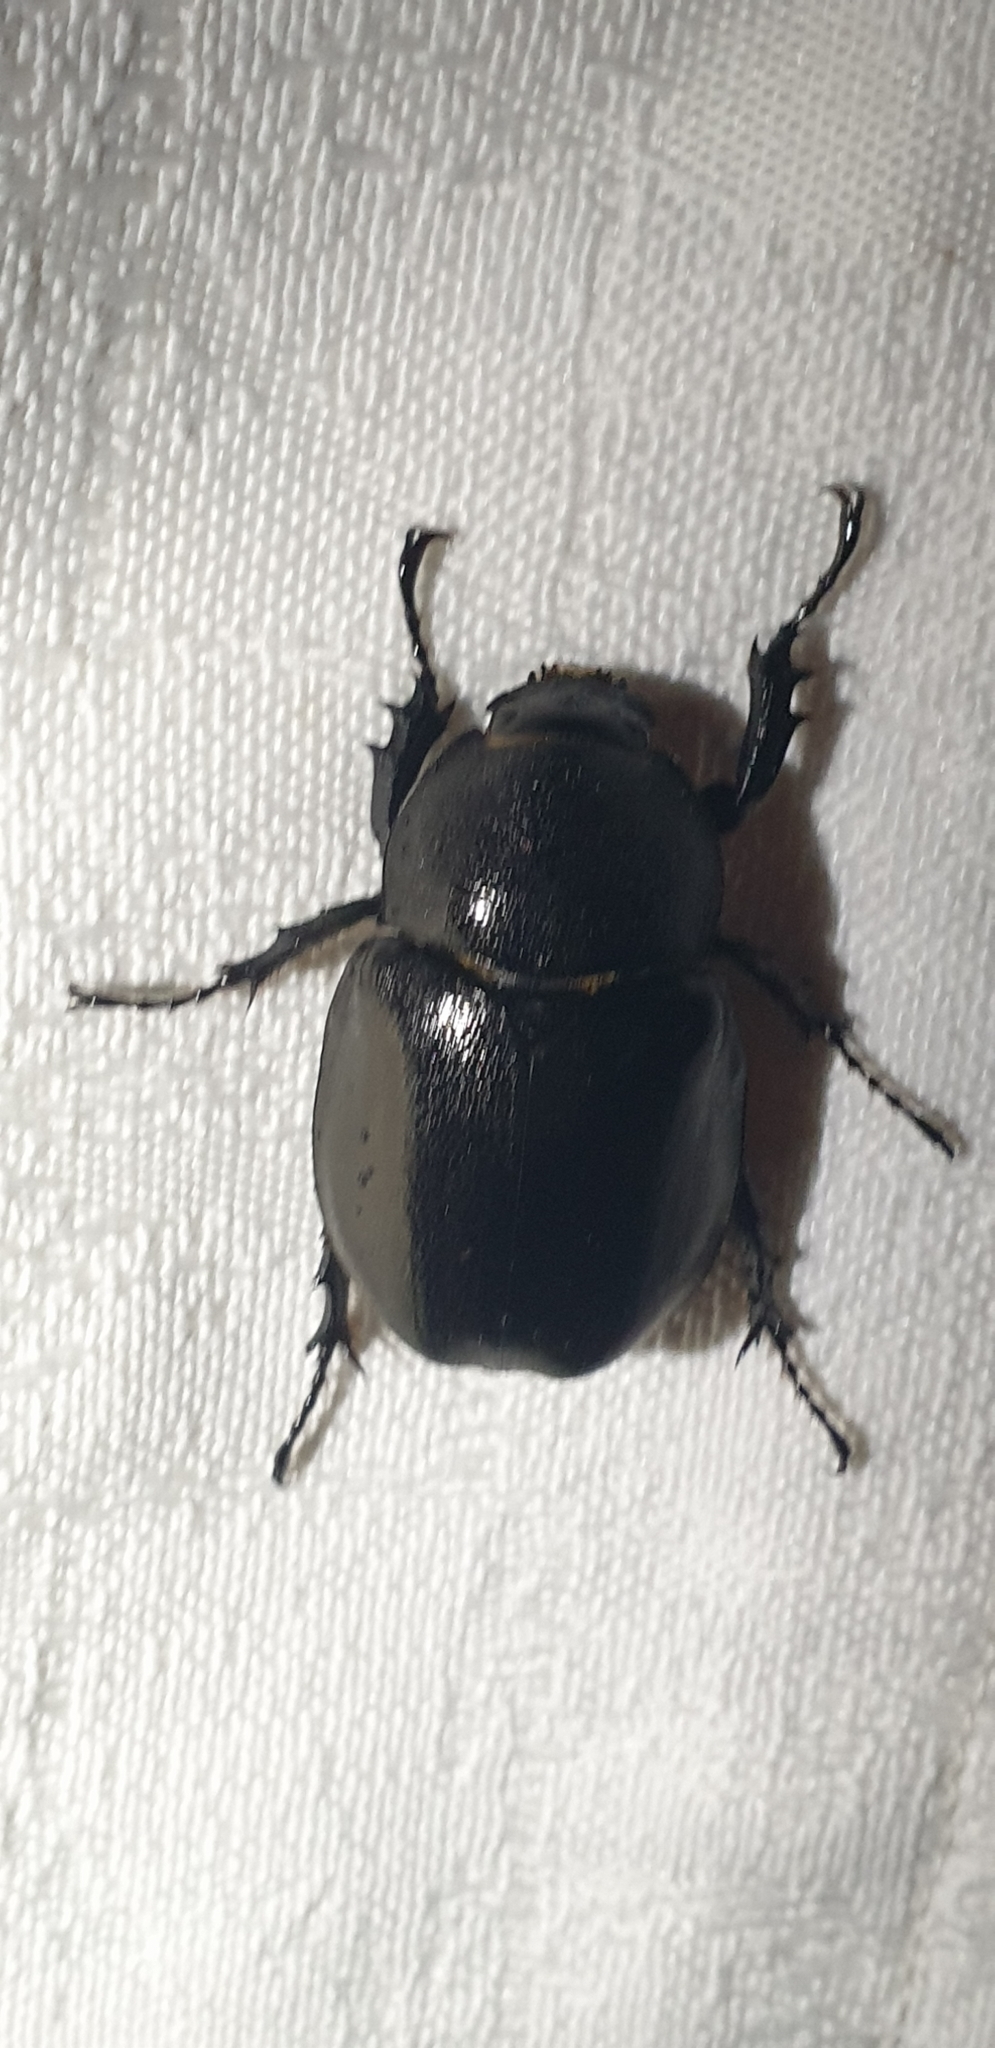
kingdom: Animalia
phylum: Arthropoda
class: Insecta
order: Coleoptera
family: Scarabaeidae
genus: Xylotrupes
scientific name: Xylotrupes australicus
